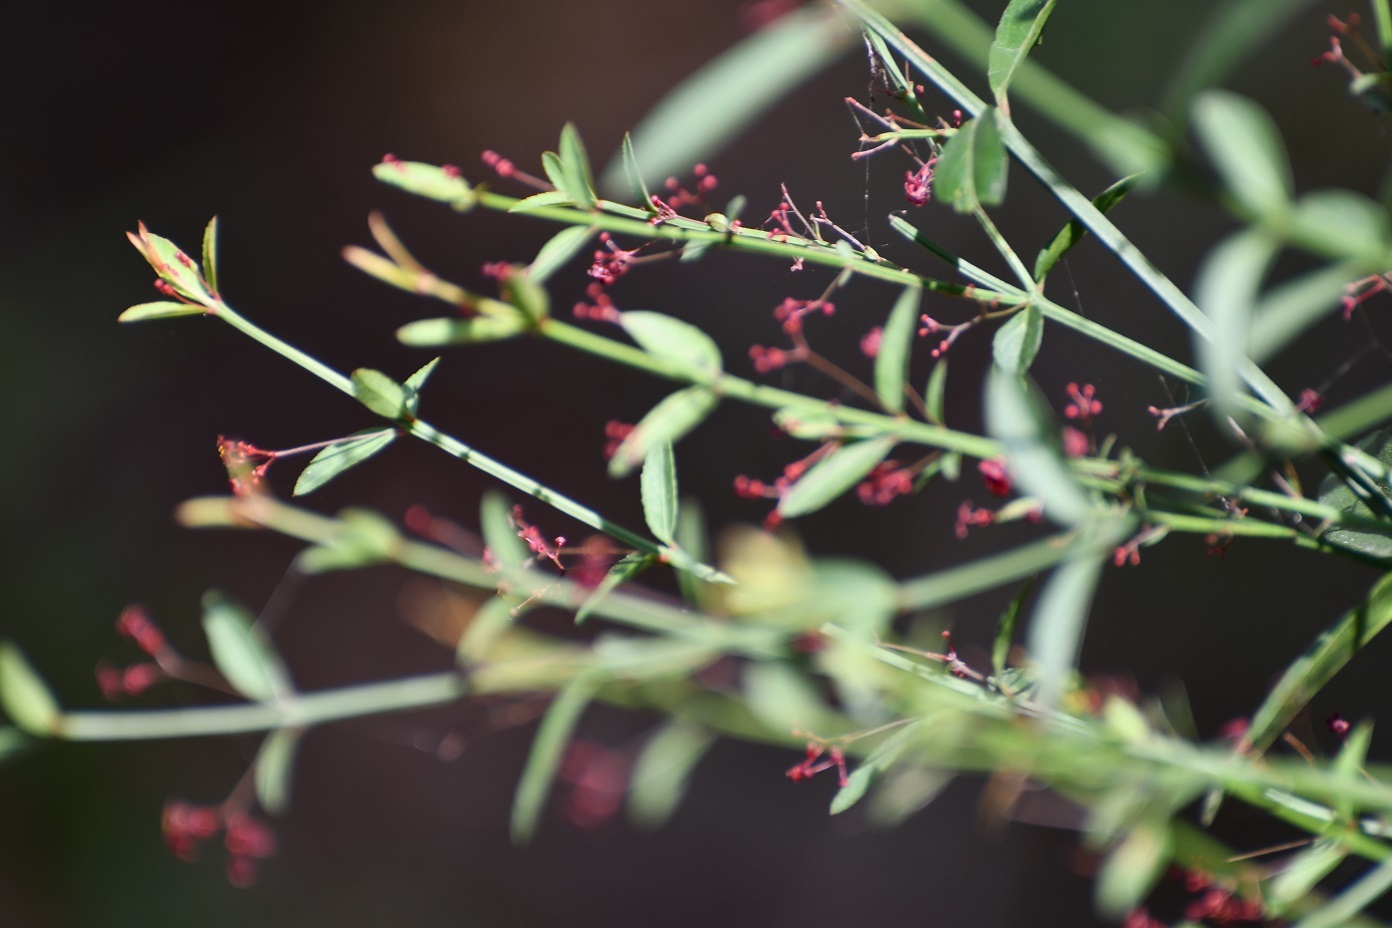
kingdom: Plantae
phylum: Tracheophyta
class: Magnoliopsida
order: Celastrales
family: Celastraceae
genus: Crossopetalum
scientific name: Crossopetalum uragoga
